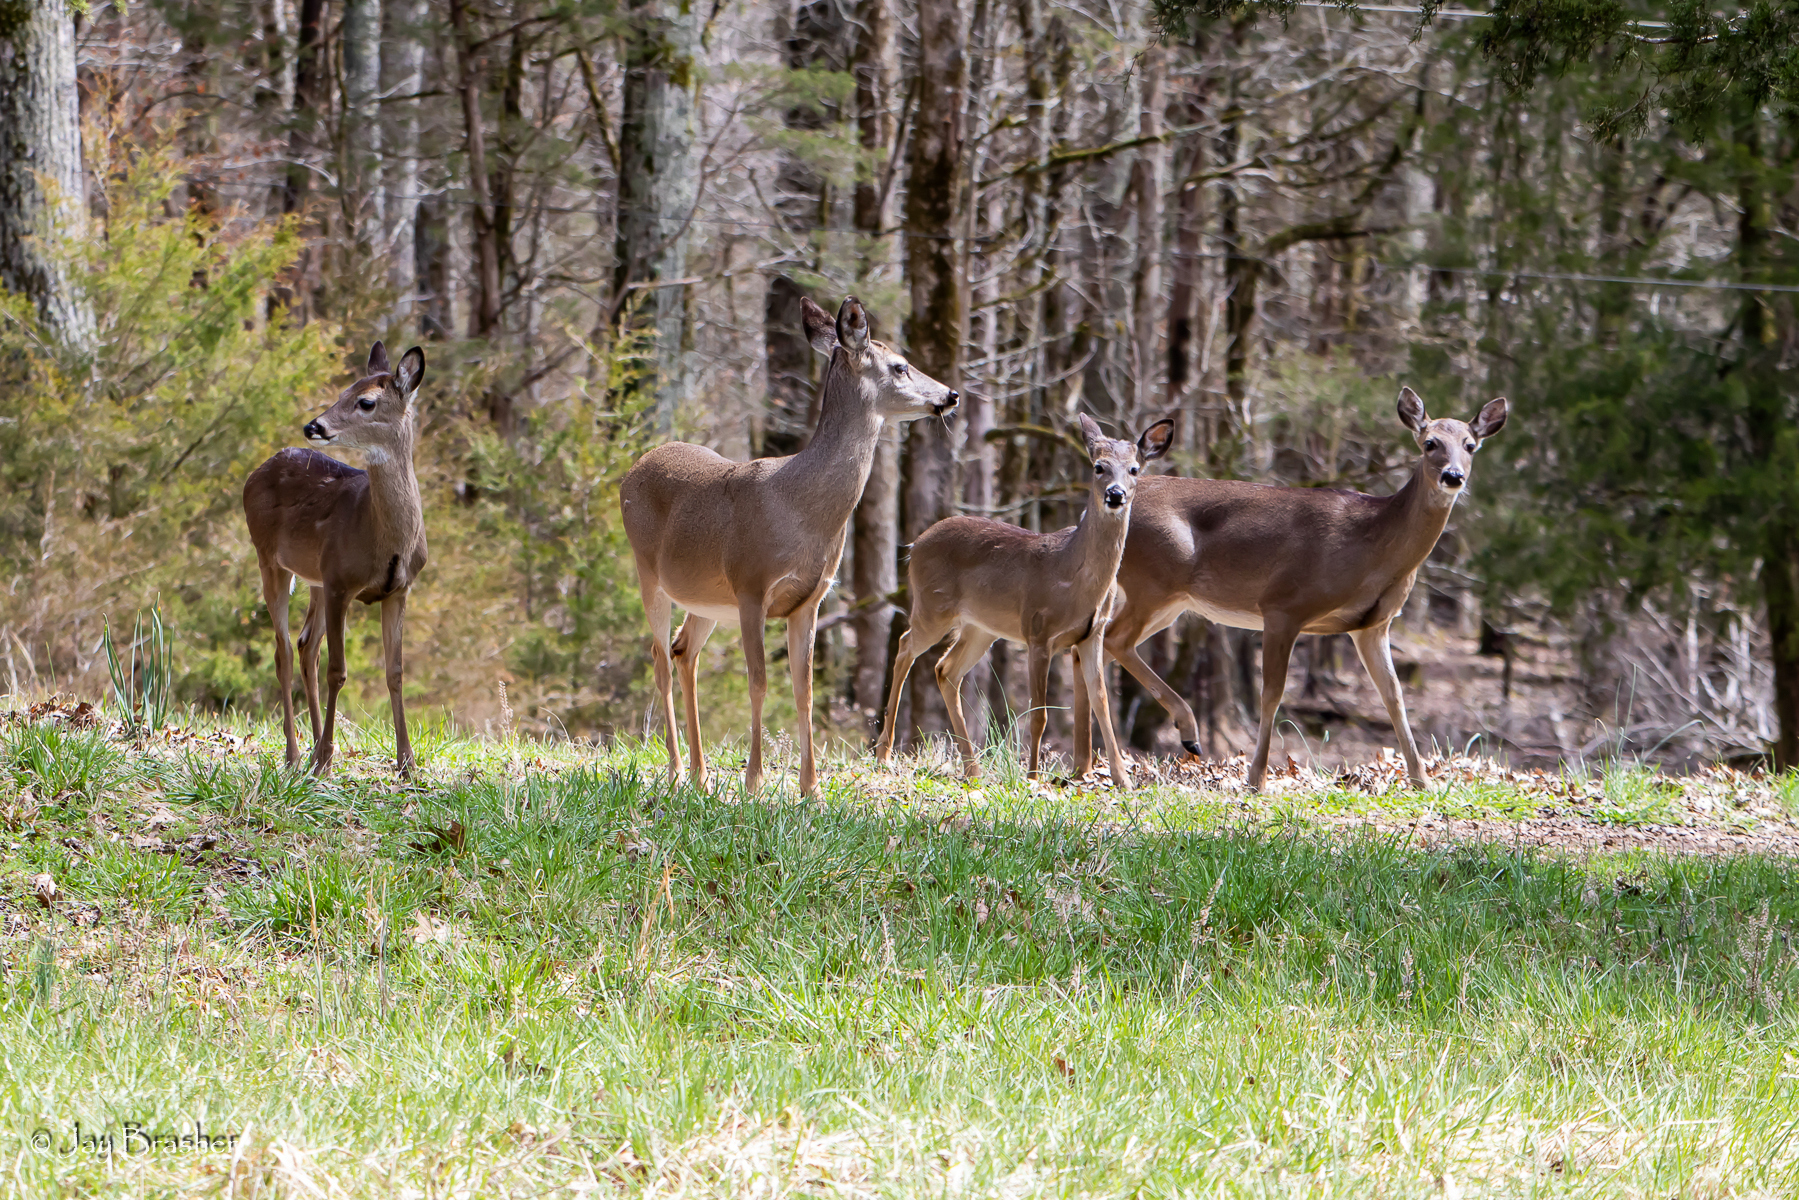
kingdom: Animalia
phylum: Chordata
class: Mammalia
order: Artiodactyla
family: Cervidae
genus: Odocoileus
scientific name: Odocoileus virginianus
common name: White-tailed deer
